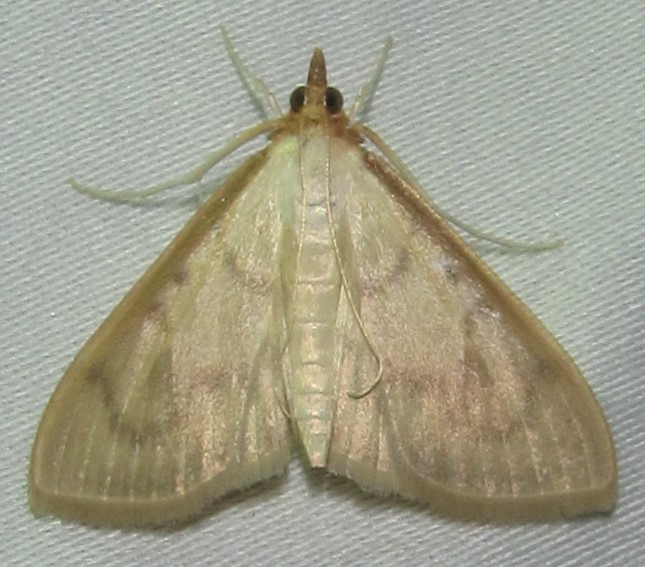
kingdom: Animalia
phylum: Arthropoda
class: Insecta
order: Lepidoptera
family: Crambidae
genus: Pyrausta
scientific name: Pyrausta testalis
